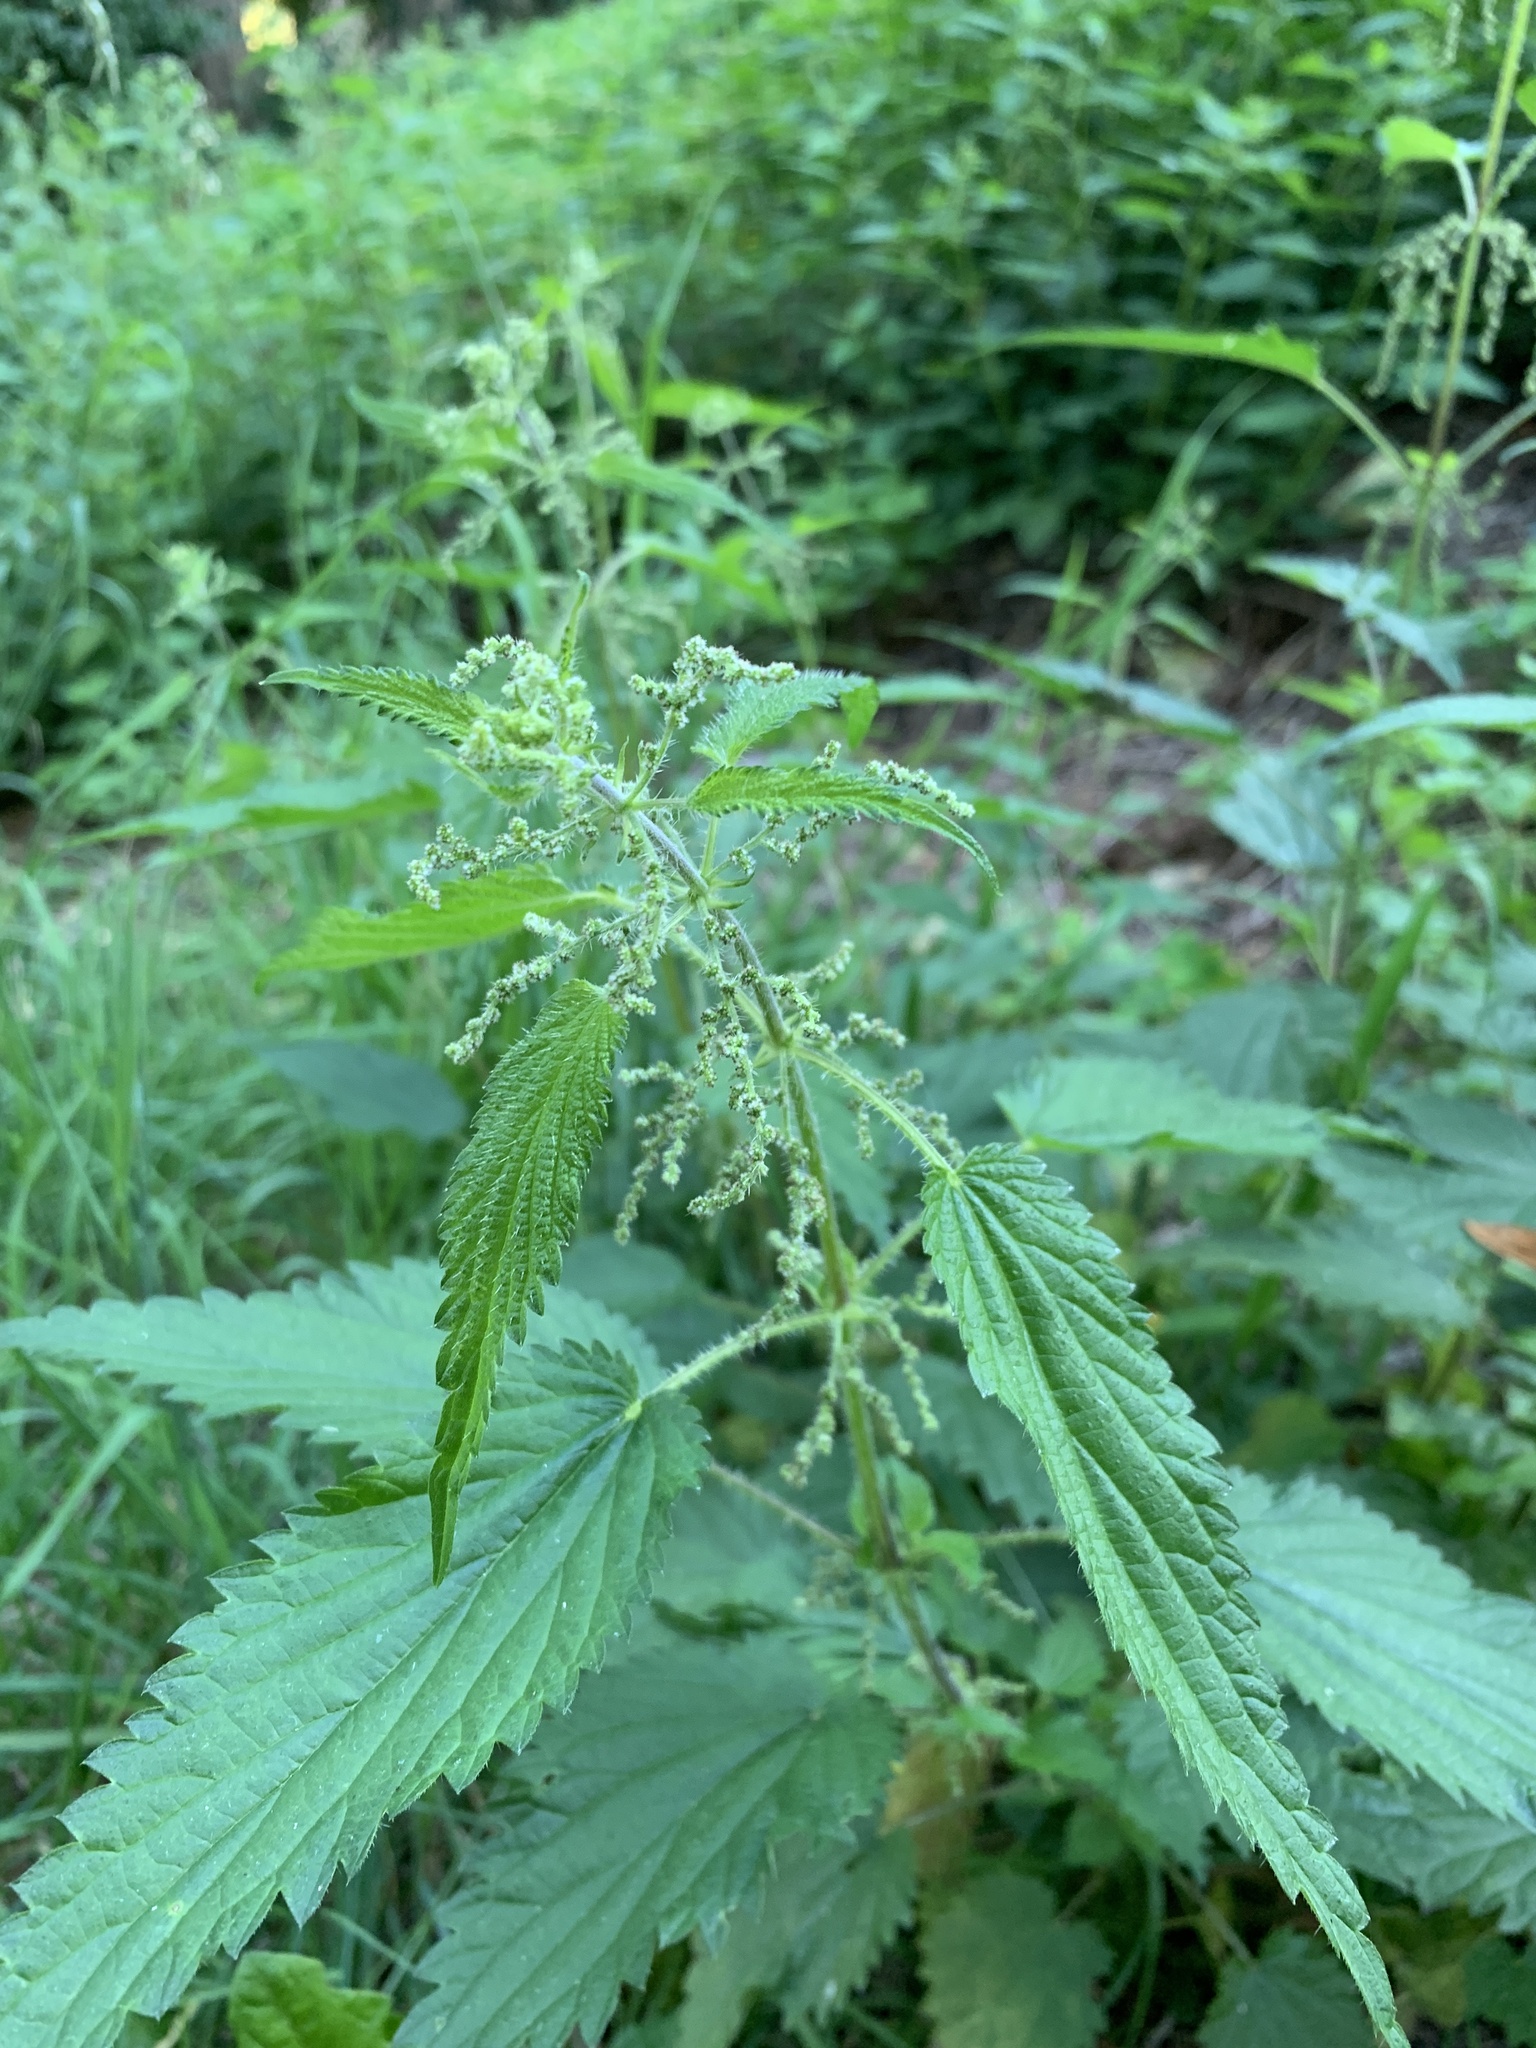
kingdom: Plantae
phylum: Tracheophyta
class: Magnoliopsida
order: Rosales
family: Urticaceae
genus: Urtica
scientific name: Urtica dioica
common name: Common nettle
